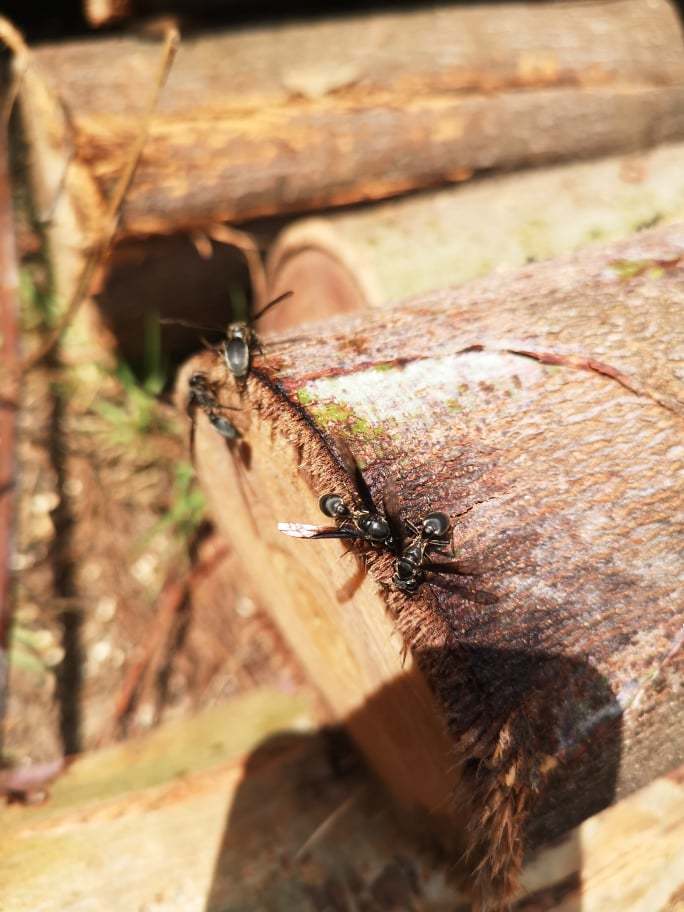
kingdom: Animalia
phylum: Arthropoda
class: Insecta
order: Hymenoptera
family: Eumenidae
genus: Polybia
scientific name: Polybia ignobilis
